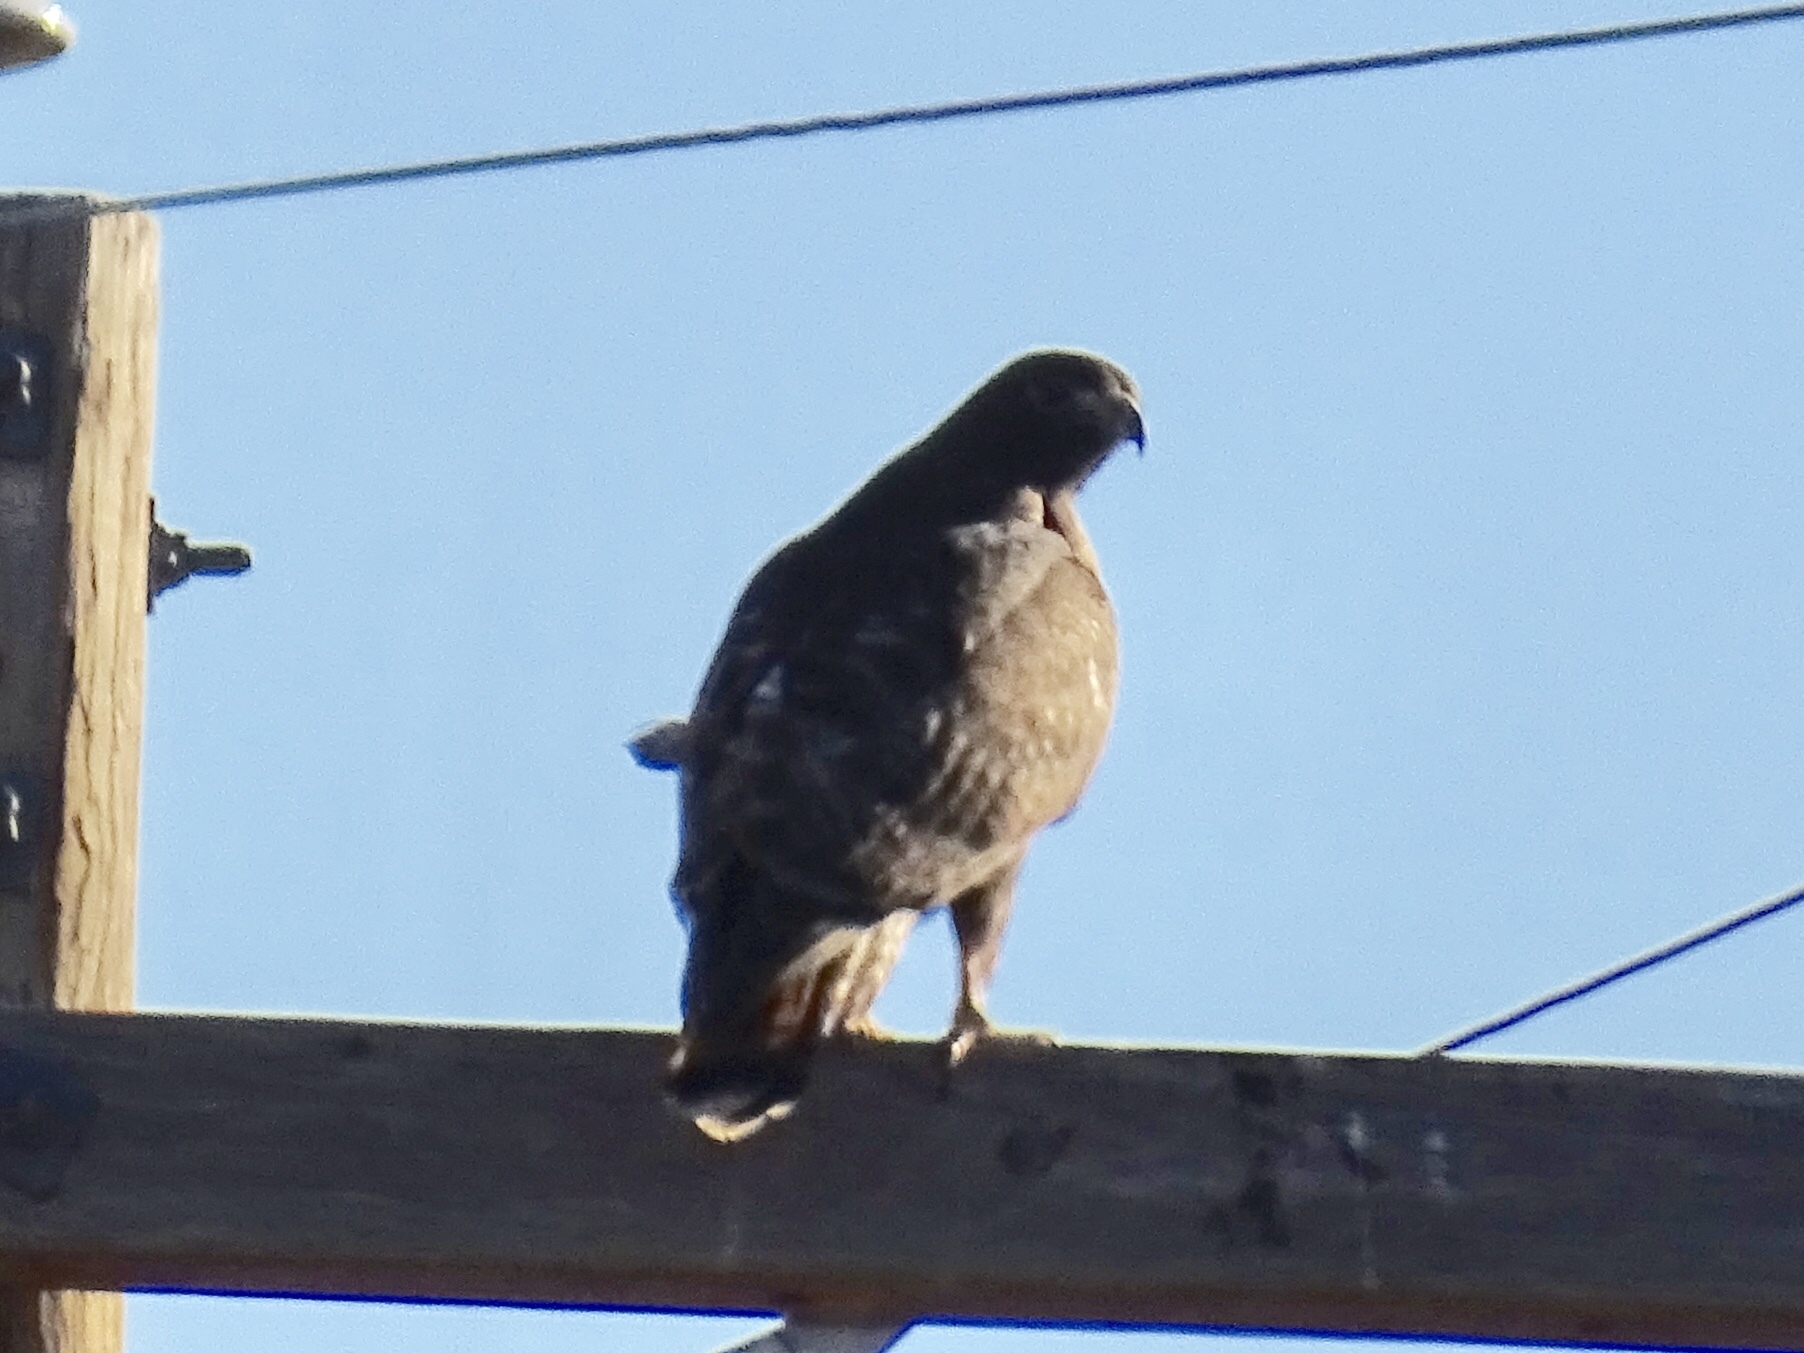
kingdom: Animalia
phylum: Chordata
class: Aves
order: Accipitriformes
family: Accipitridae
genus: Buteo
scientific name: Buteo jamaicensis
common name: Red-tailed hawk
